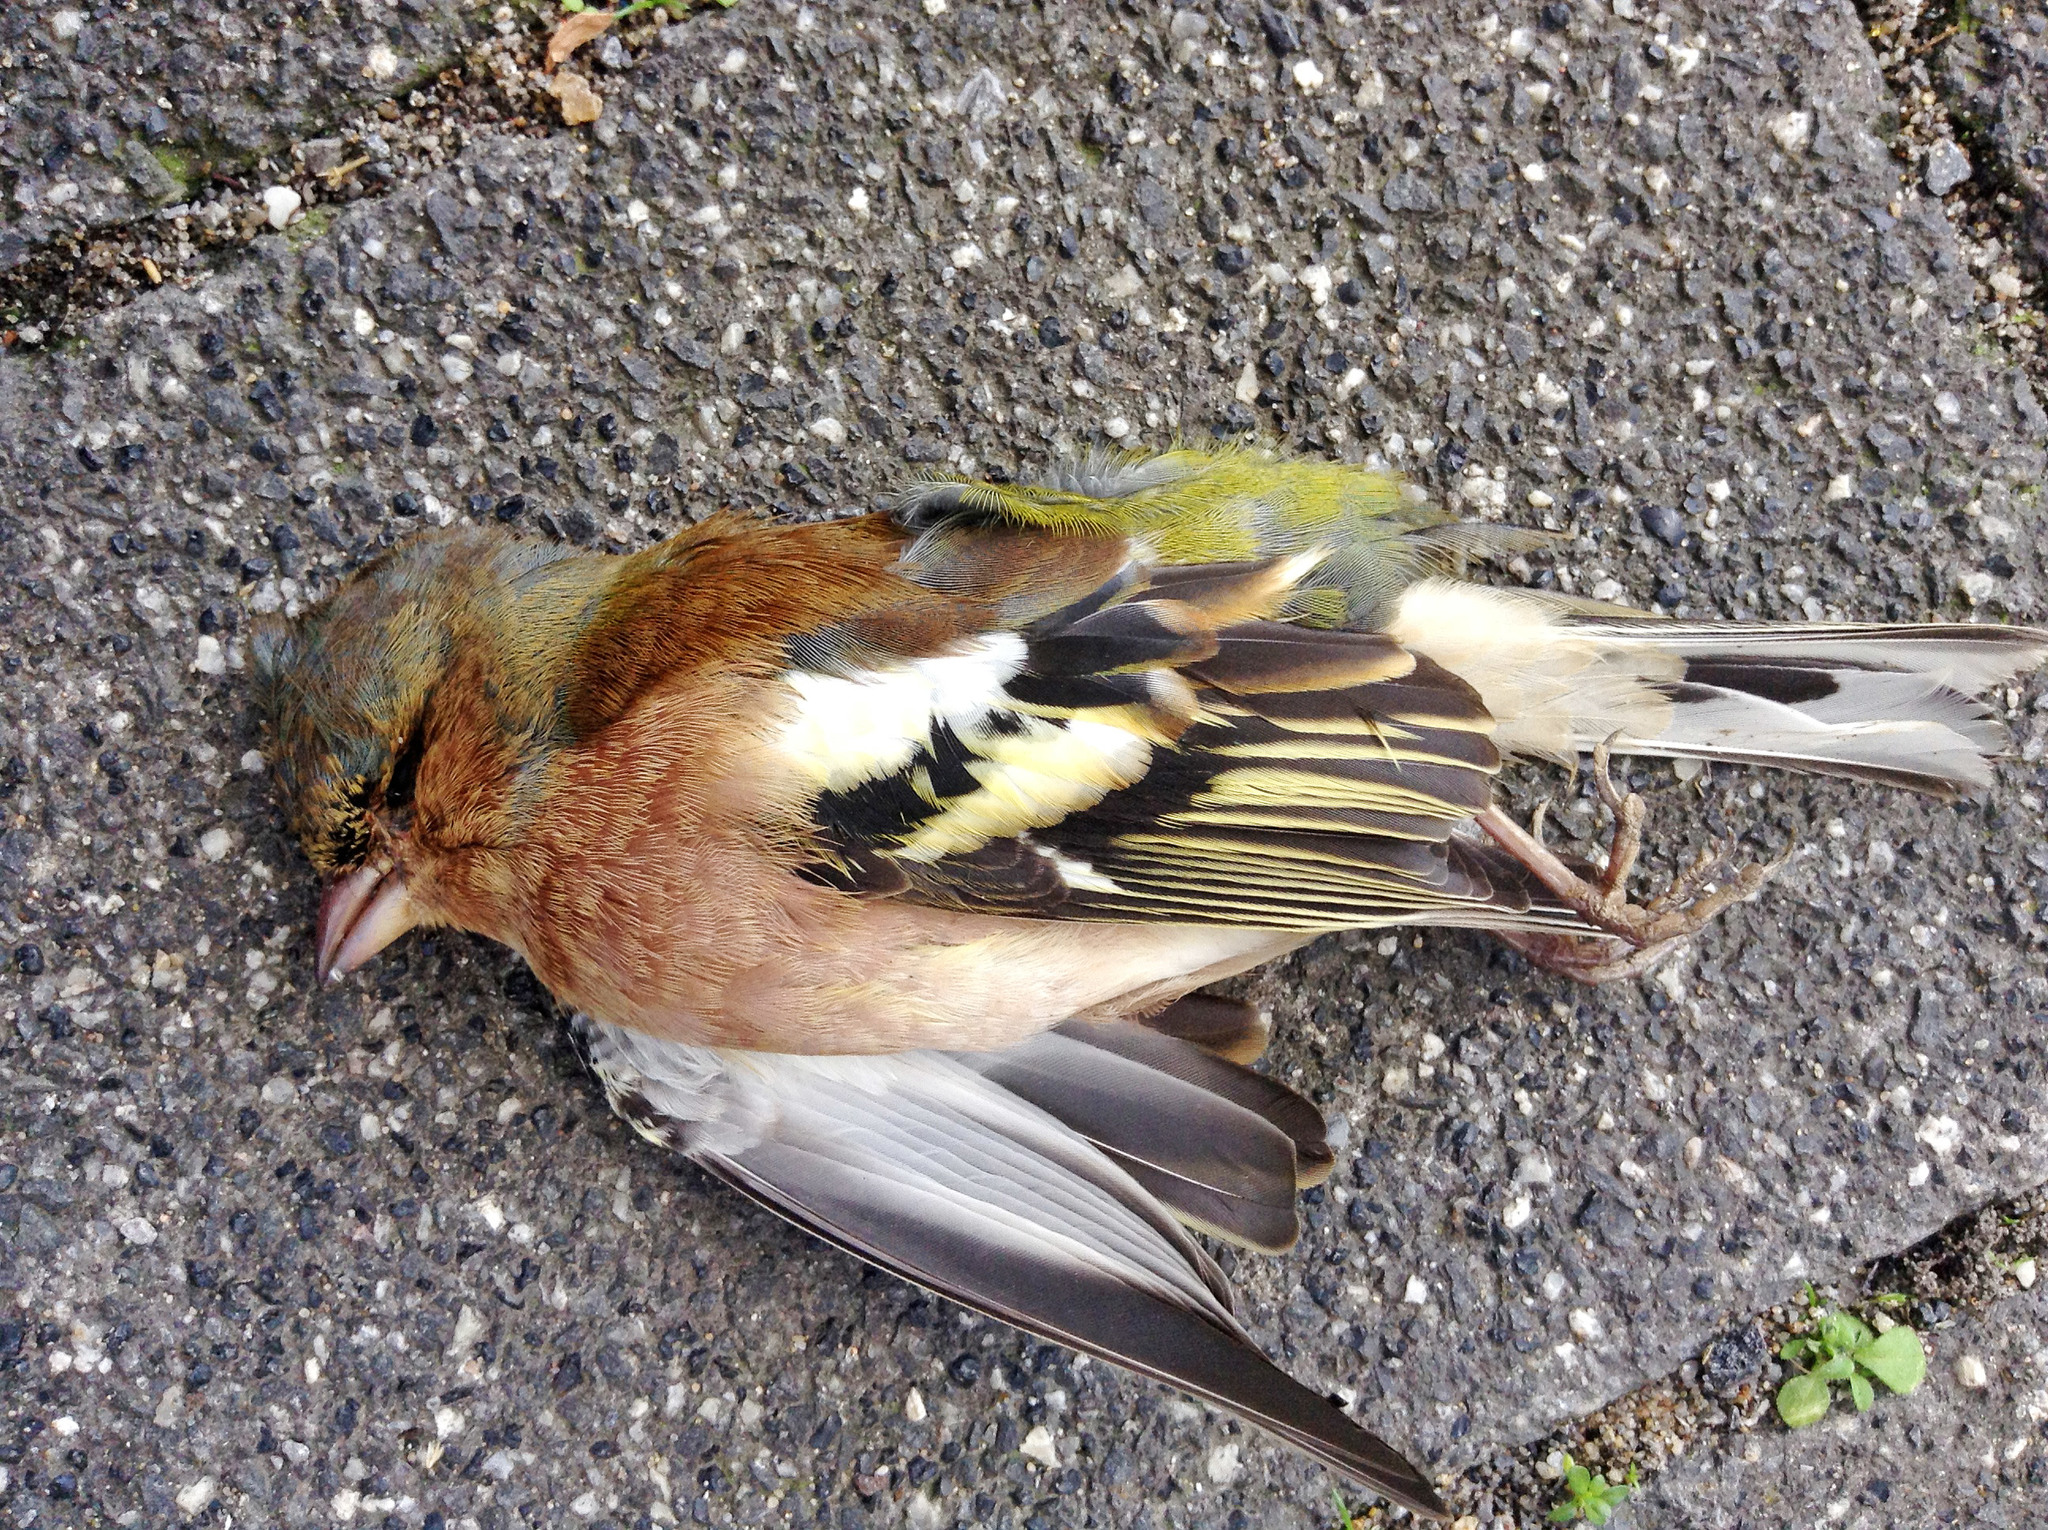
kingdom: Animalia
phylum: Chordata
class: Aves
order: Passeriformes
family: Fringillidae
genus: Fringilla
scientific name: Fringilla coelebs
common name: Common chaffinch
